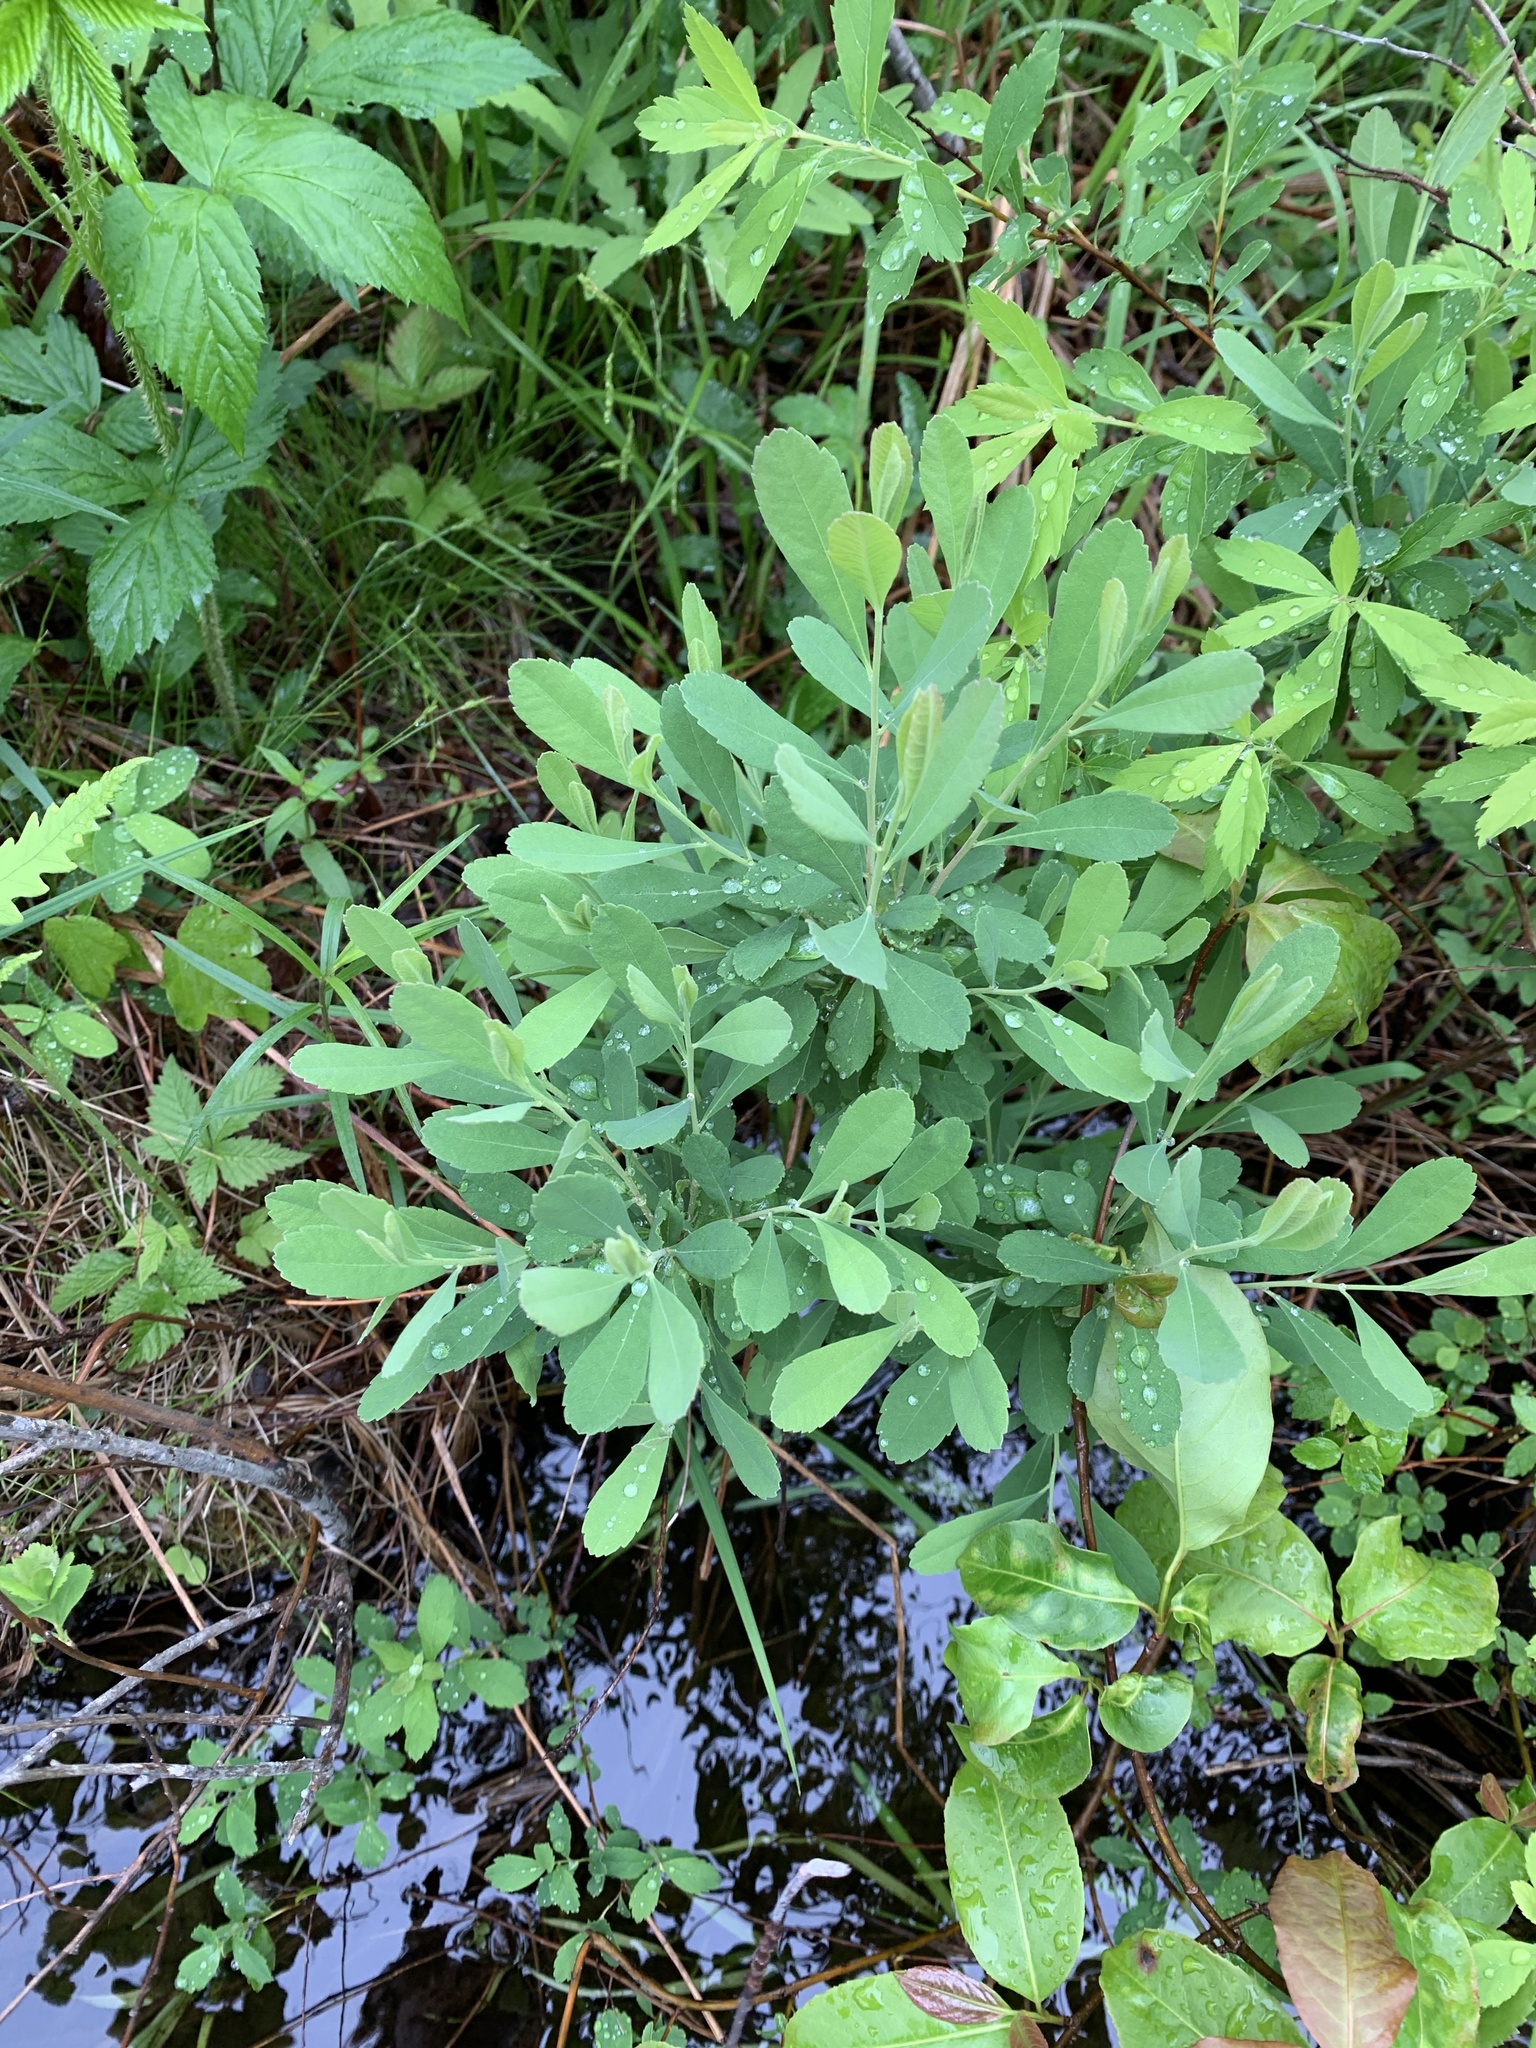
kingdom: Plantae
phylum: Tracheophyta
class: Magnoliopsida
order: Fagales
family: Myricaceae
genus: Myrica
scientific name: Myrica gale
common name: Sweet gale
